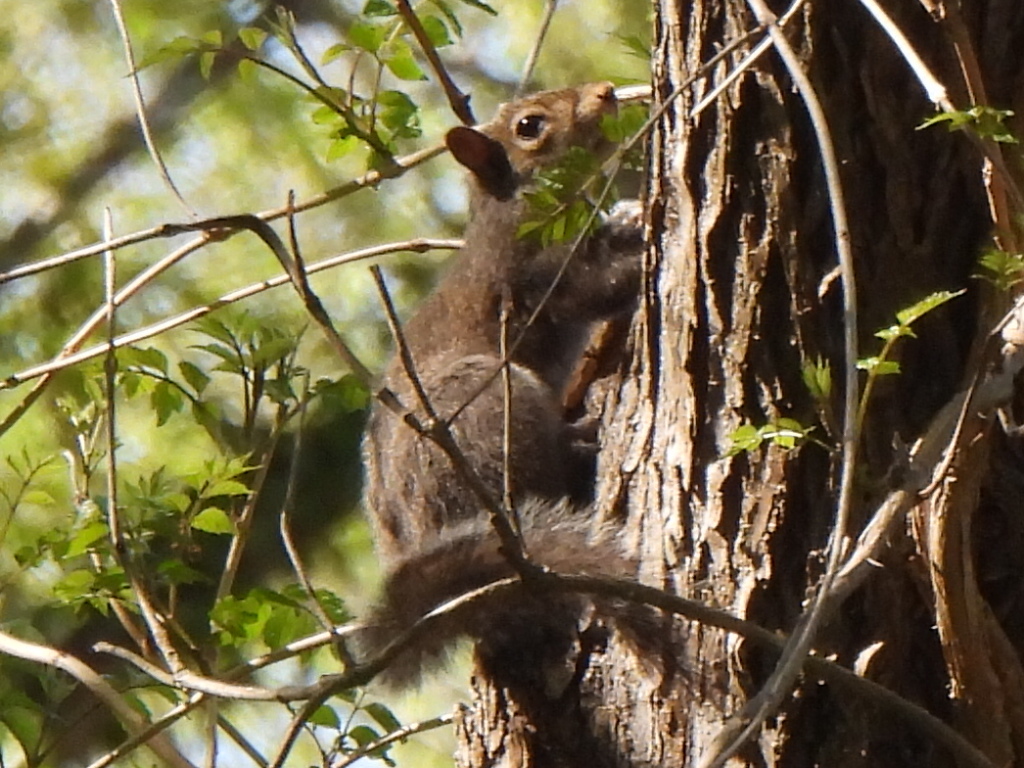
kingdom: Animalia
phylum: Chordata
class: Mammalia
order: Rodentia
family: Sciuridae
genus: Sciurus
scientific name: Sciurus carolinensis
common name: Eastern gray squirrel
